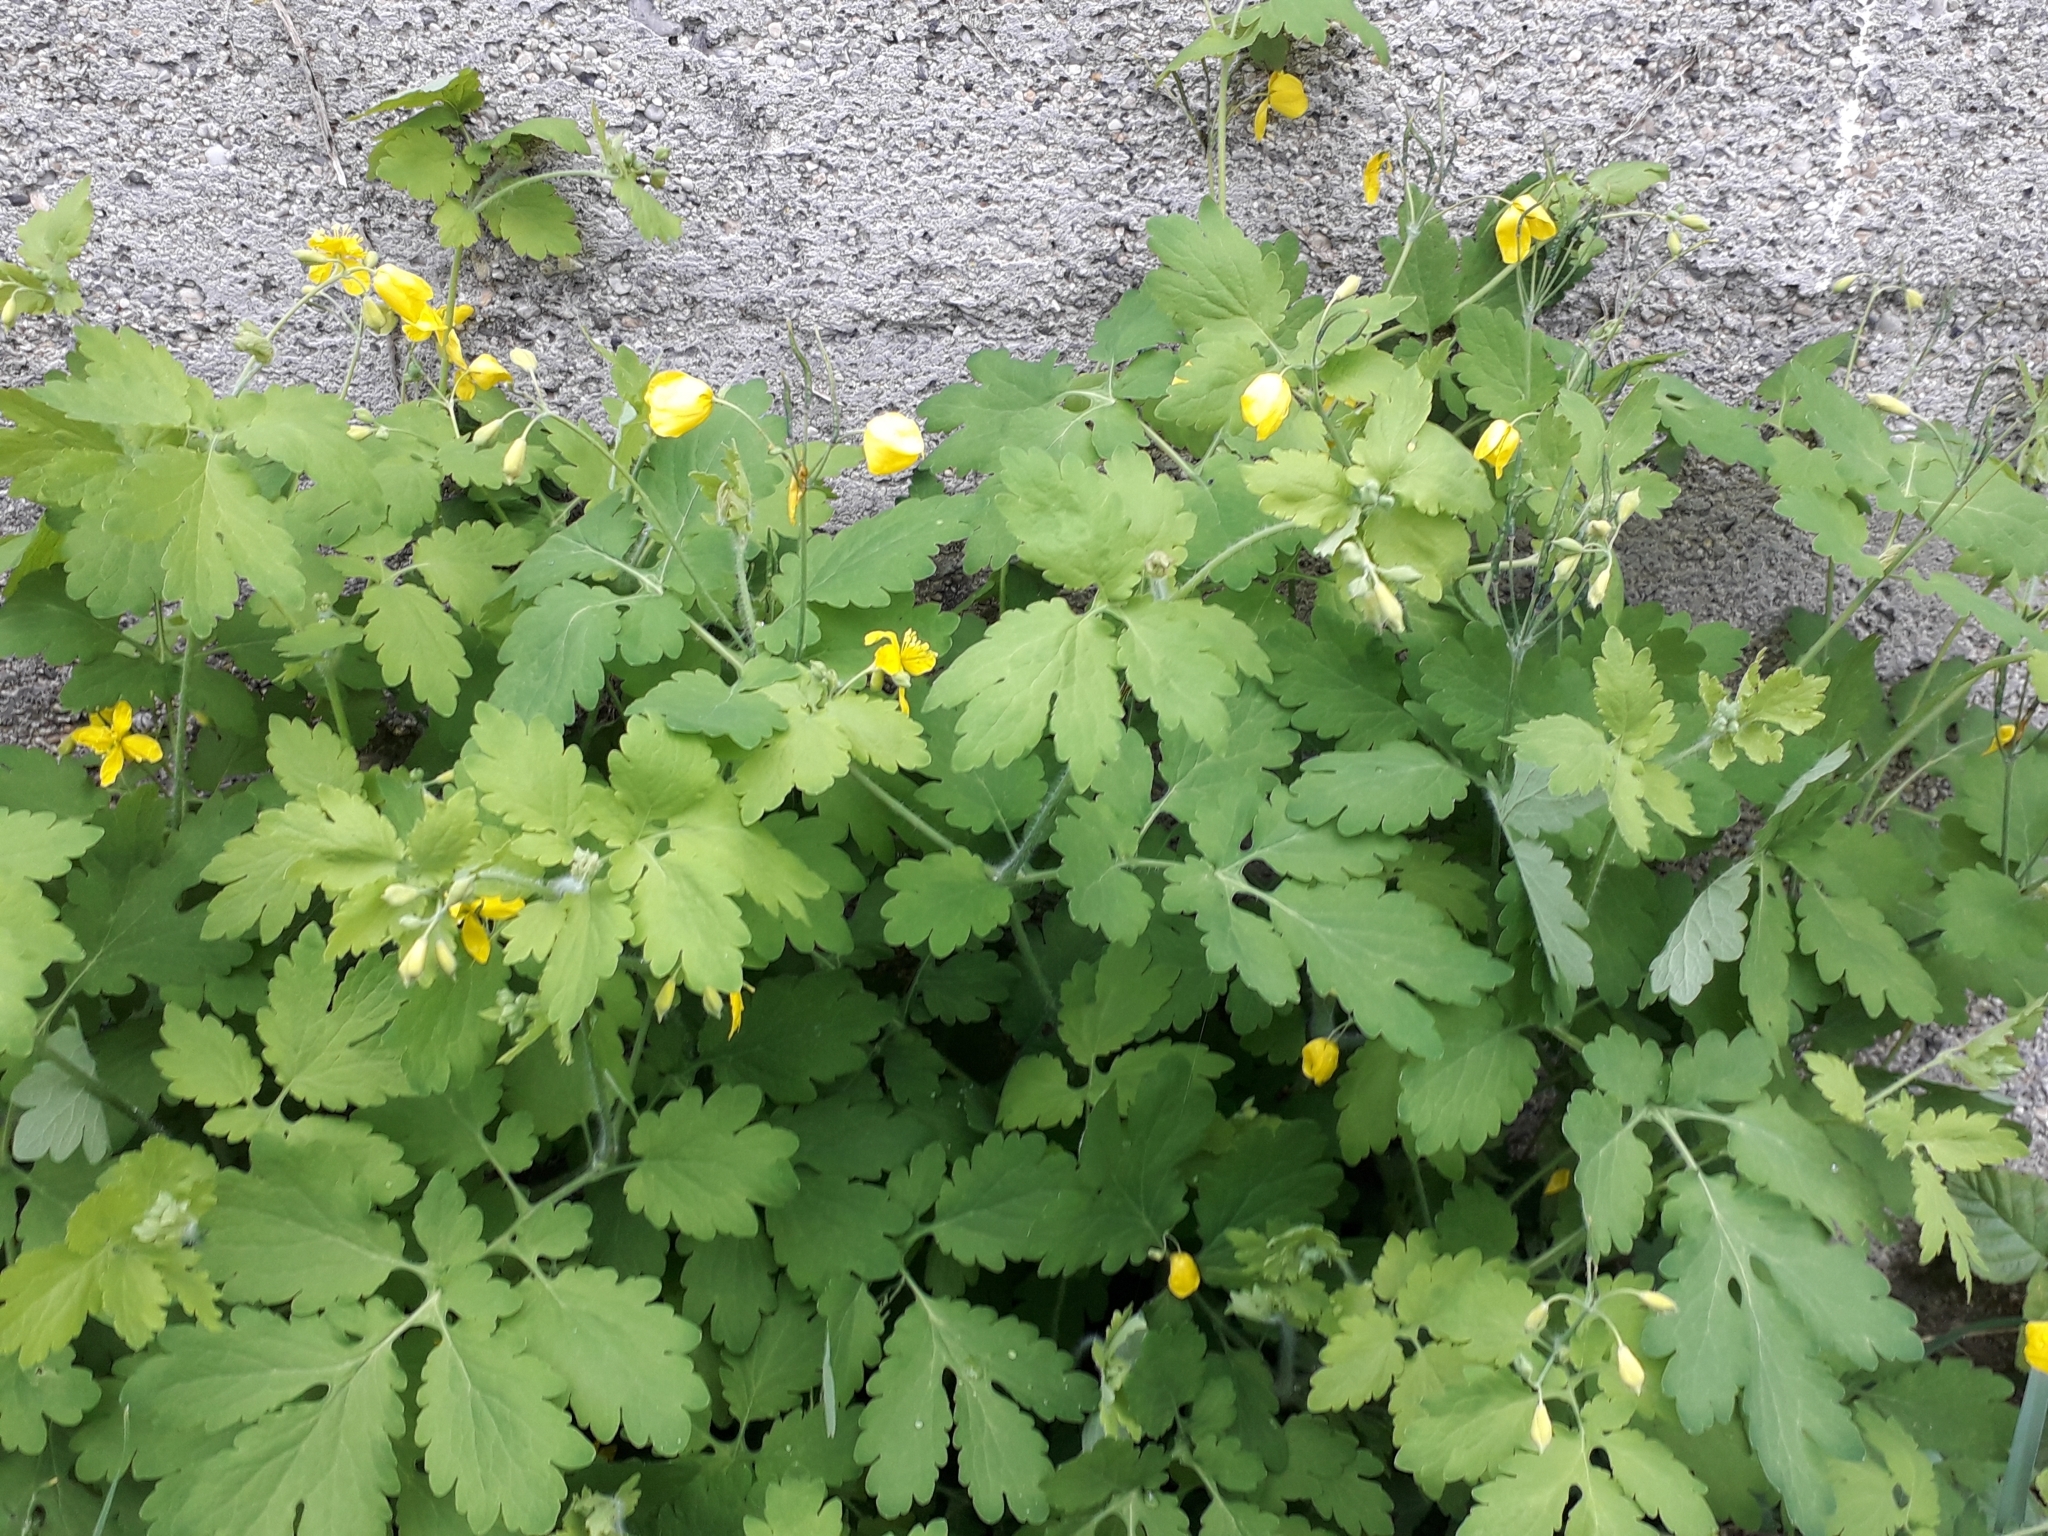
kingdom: Plantae
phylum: Tracheophyta
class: Magnoliopsida
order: Ranunculales
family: Papaveraceae
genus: Chelidonium
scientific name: Chelidonium majus
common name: Greater celandine
